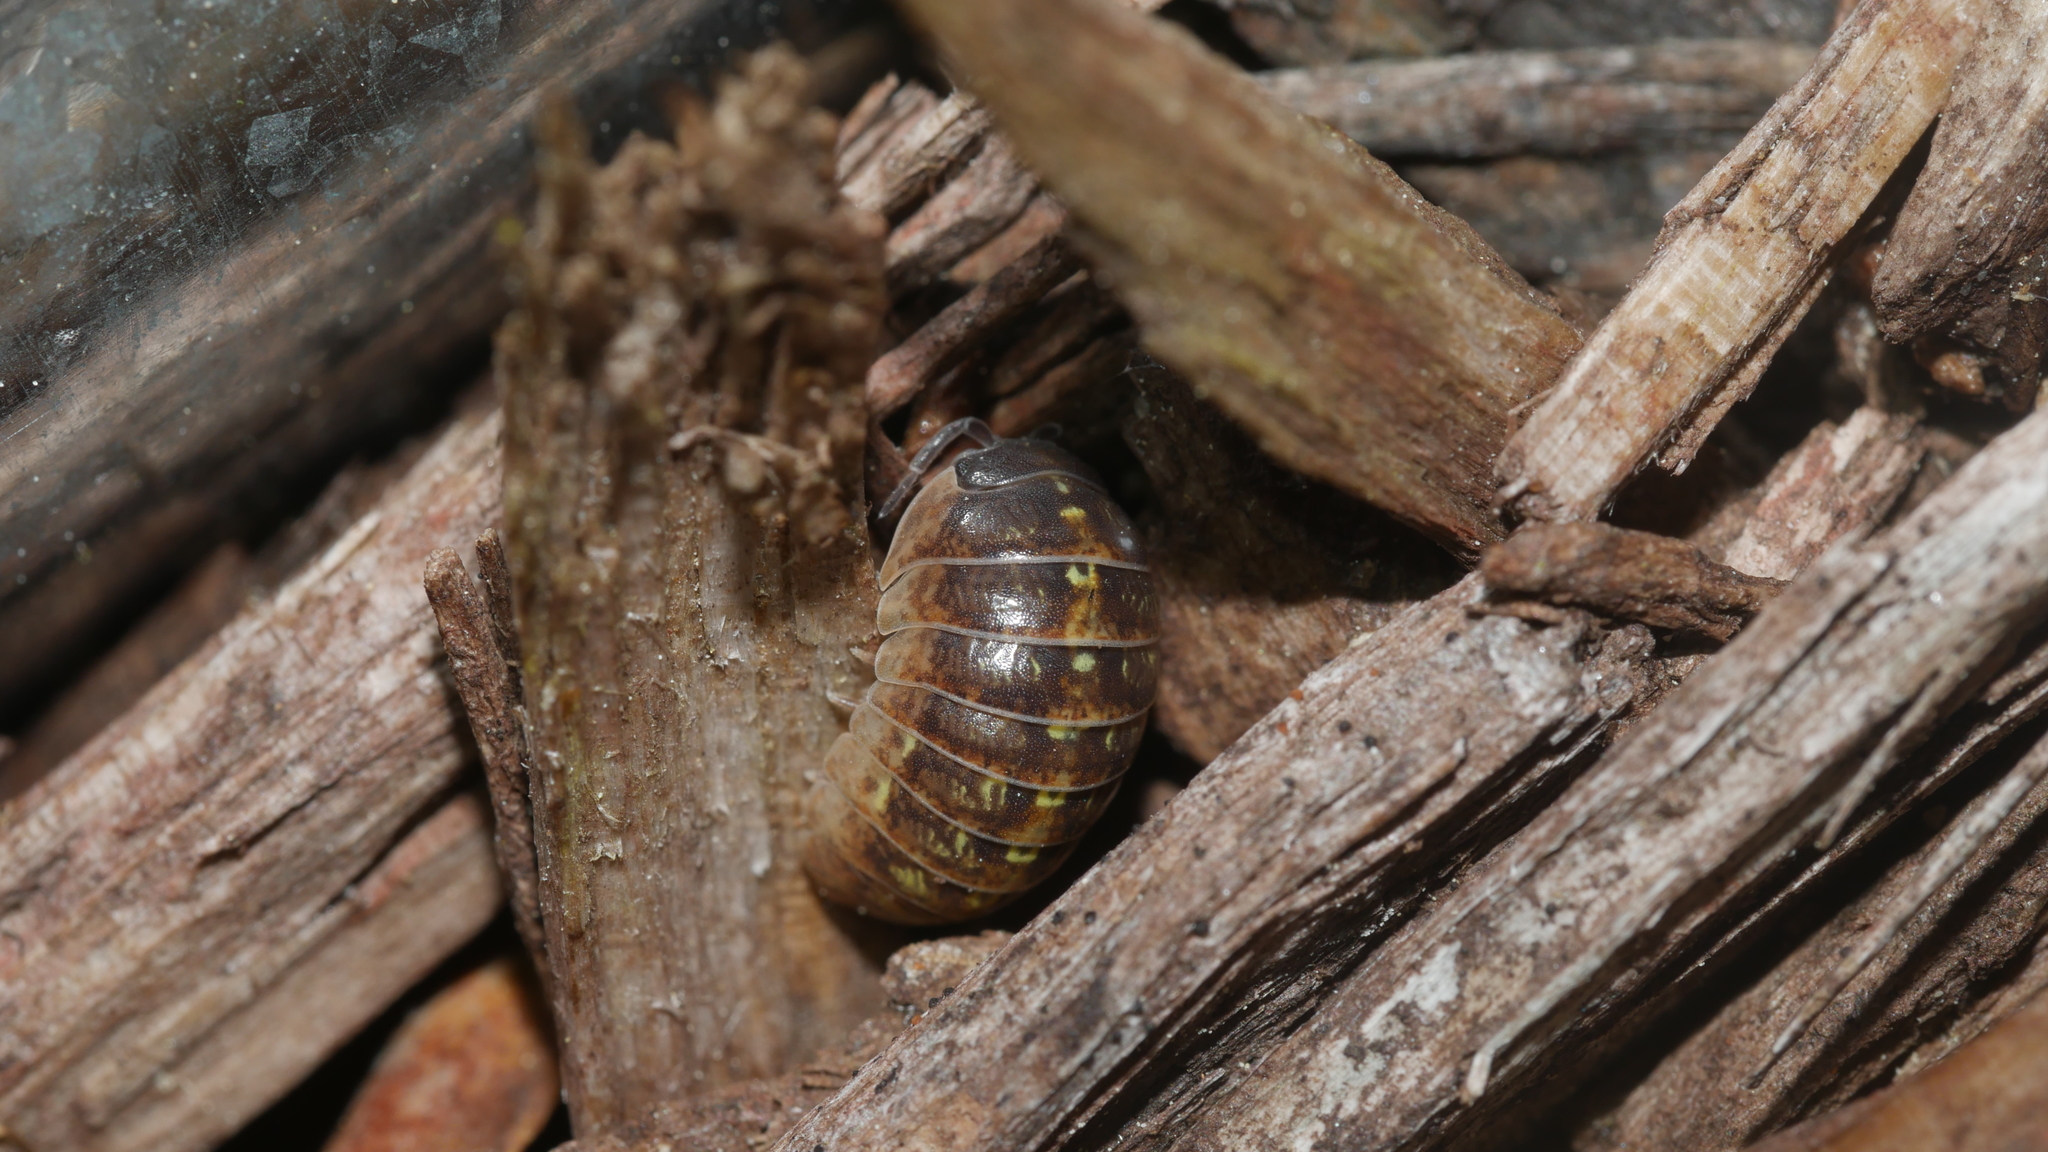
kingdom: Animalia
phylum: Arthropoda
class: Malacostraca
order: Isopoda
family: Armadillidiidae
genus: Armadillidium
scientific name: Armadillidium vulgare
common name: Common pill woodlouse
